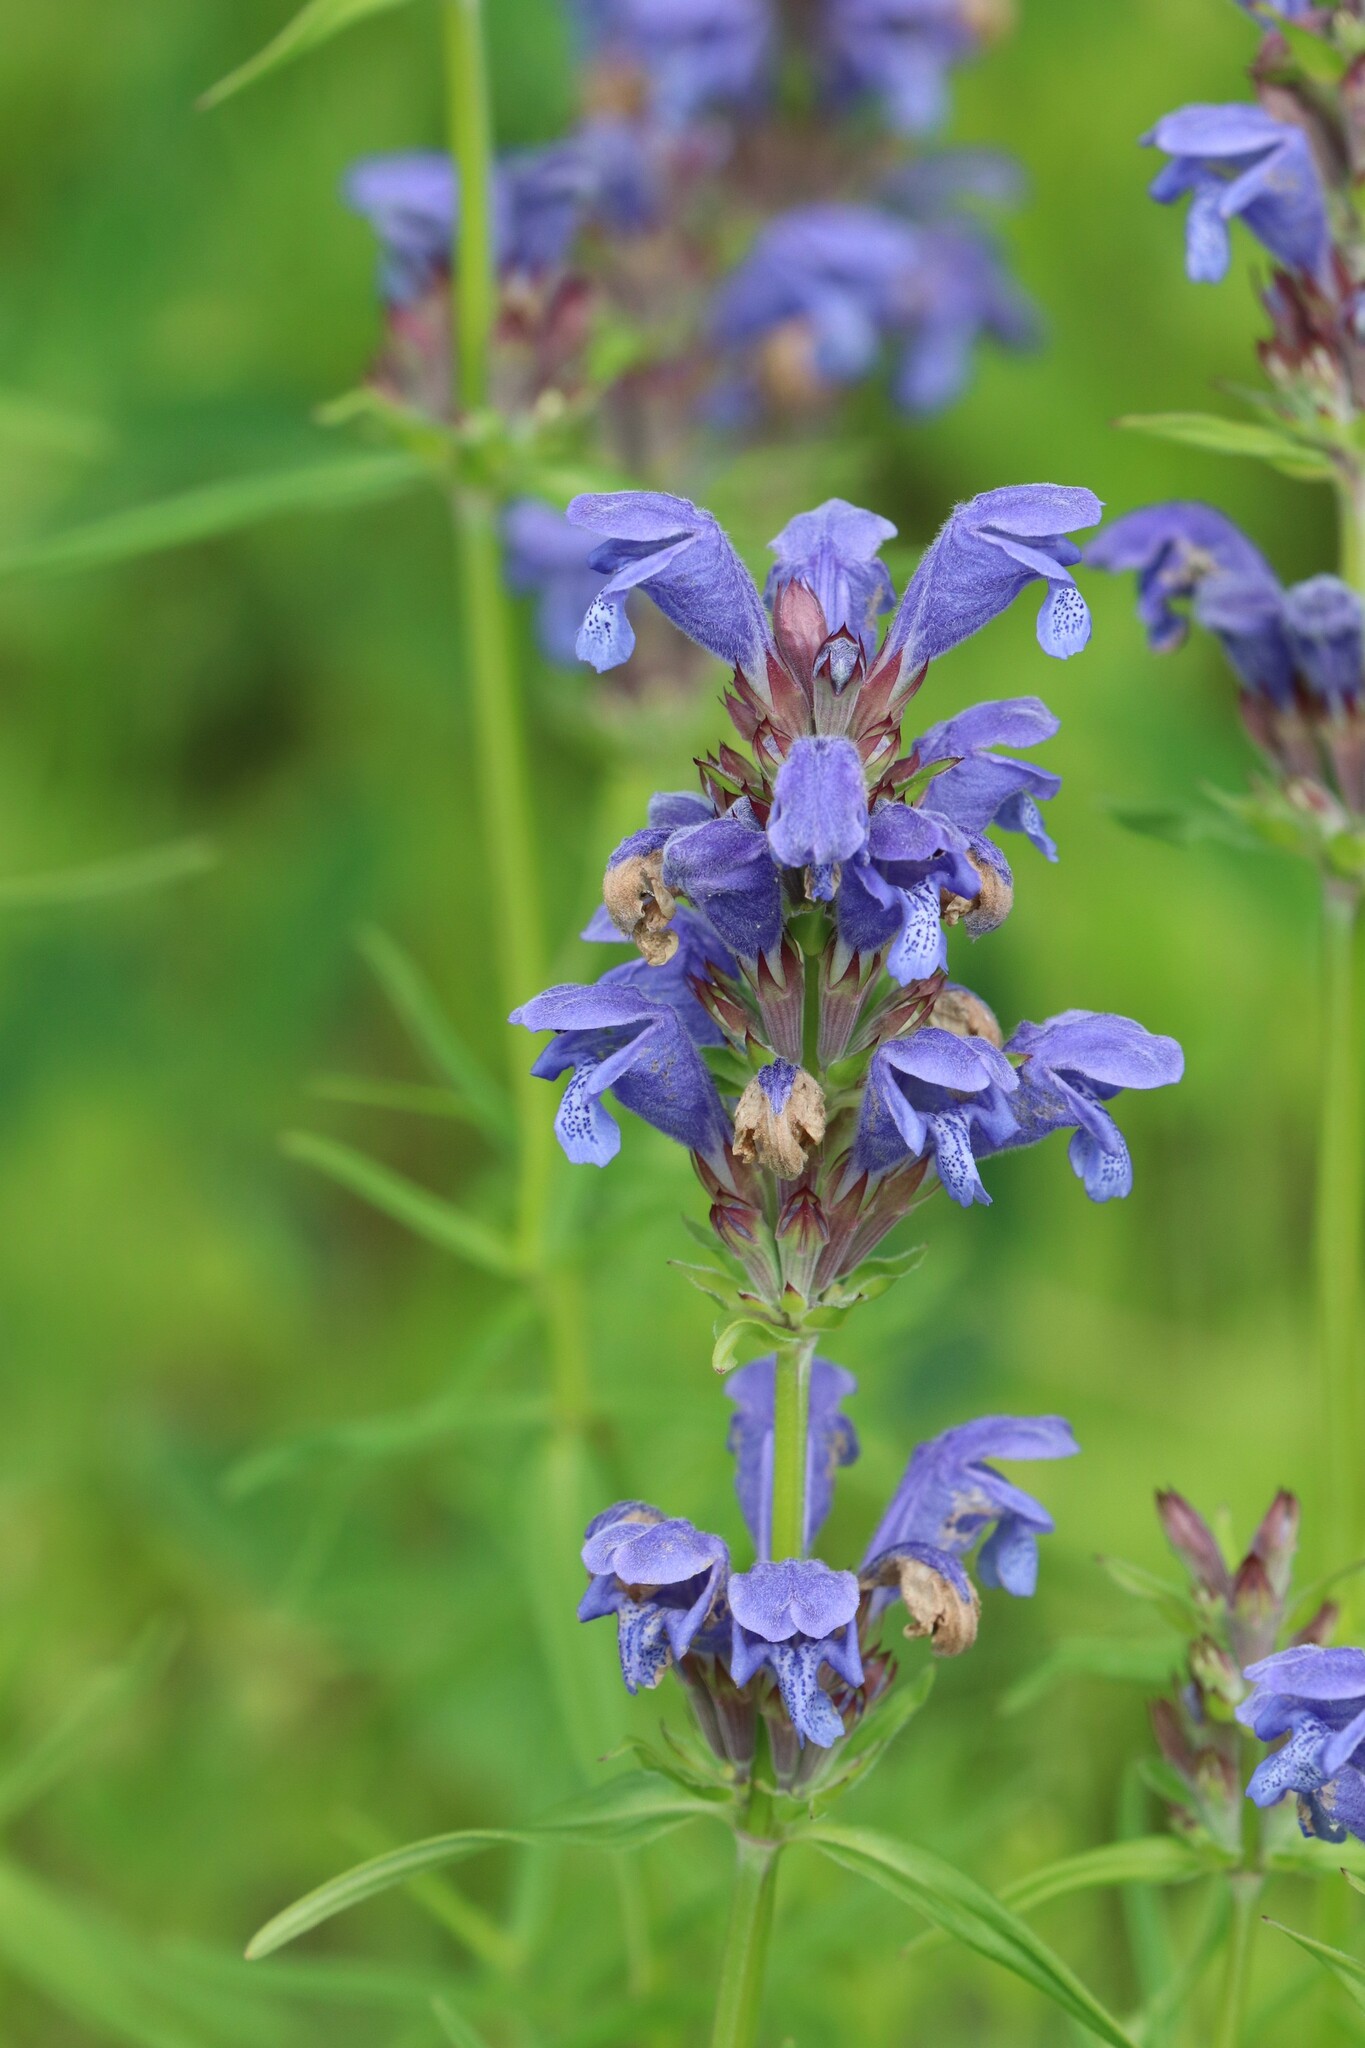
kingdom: Plantae
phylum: Tracheophyta
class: Magnoliopsida
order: Lamiales
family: Lamiaceae
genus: Dracocephalum
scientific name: Dracocephalum ruyschiana
